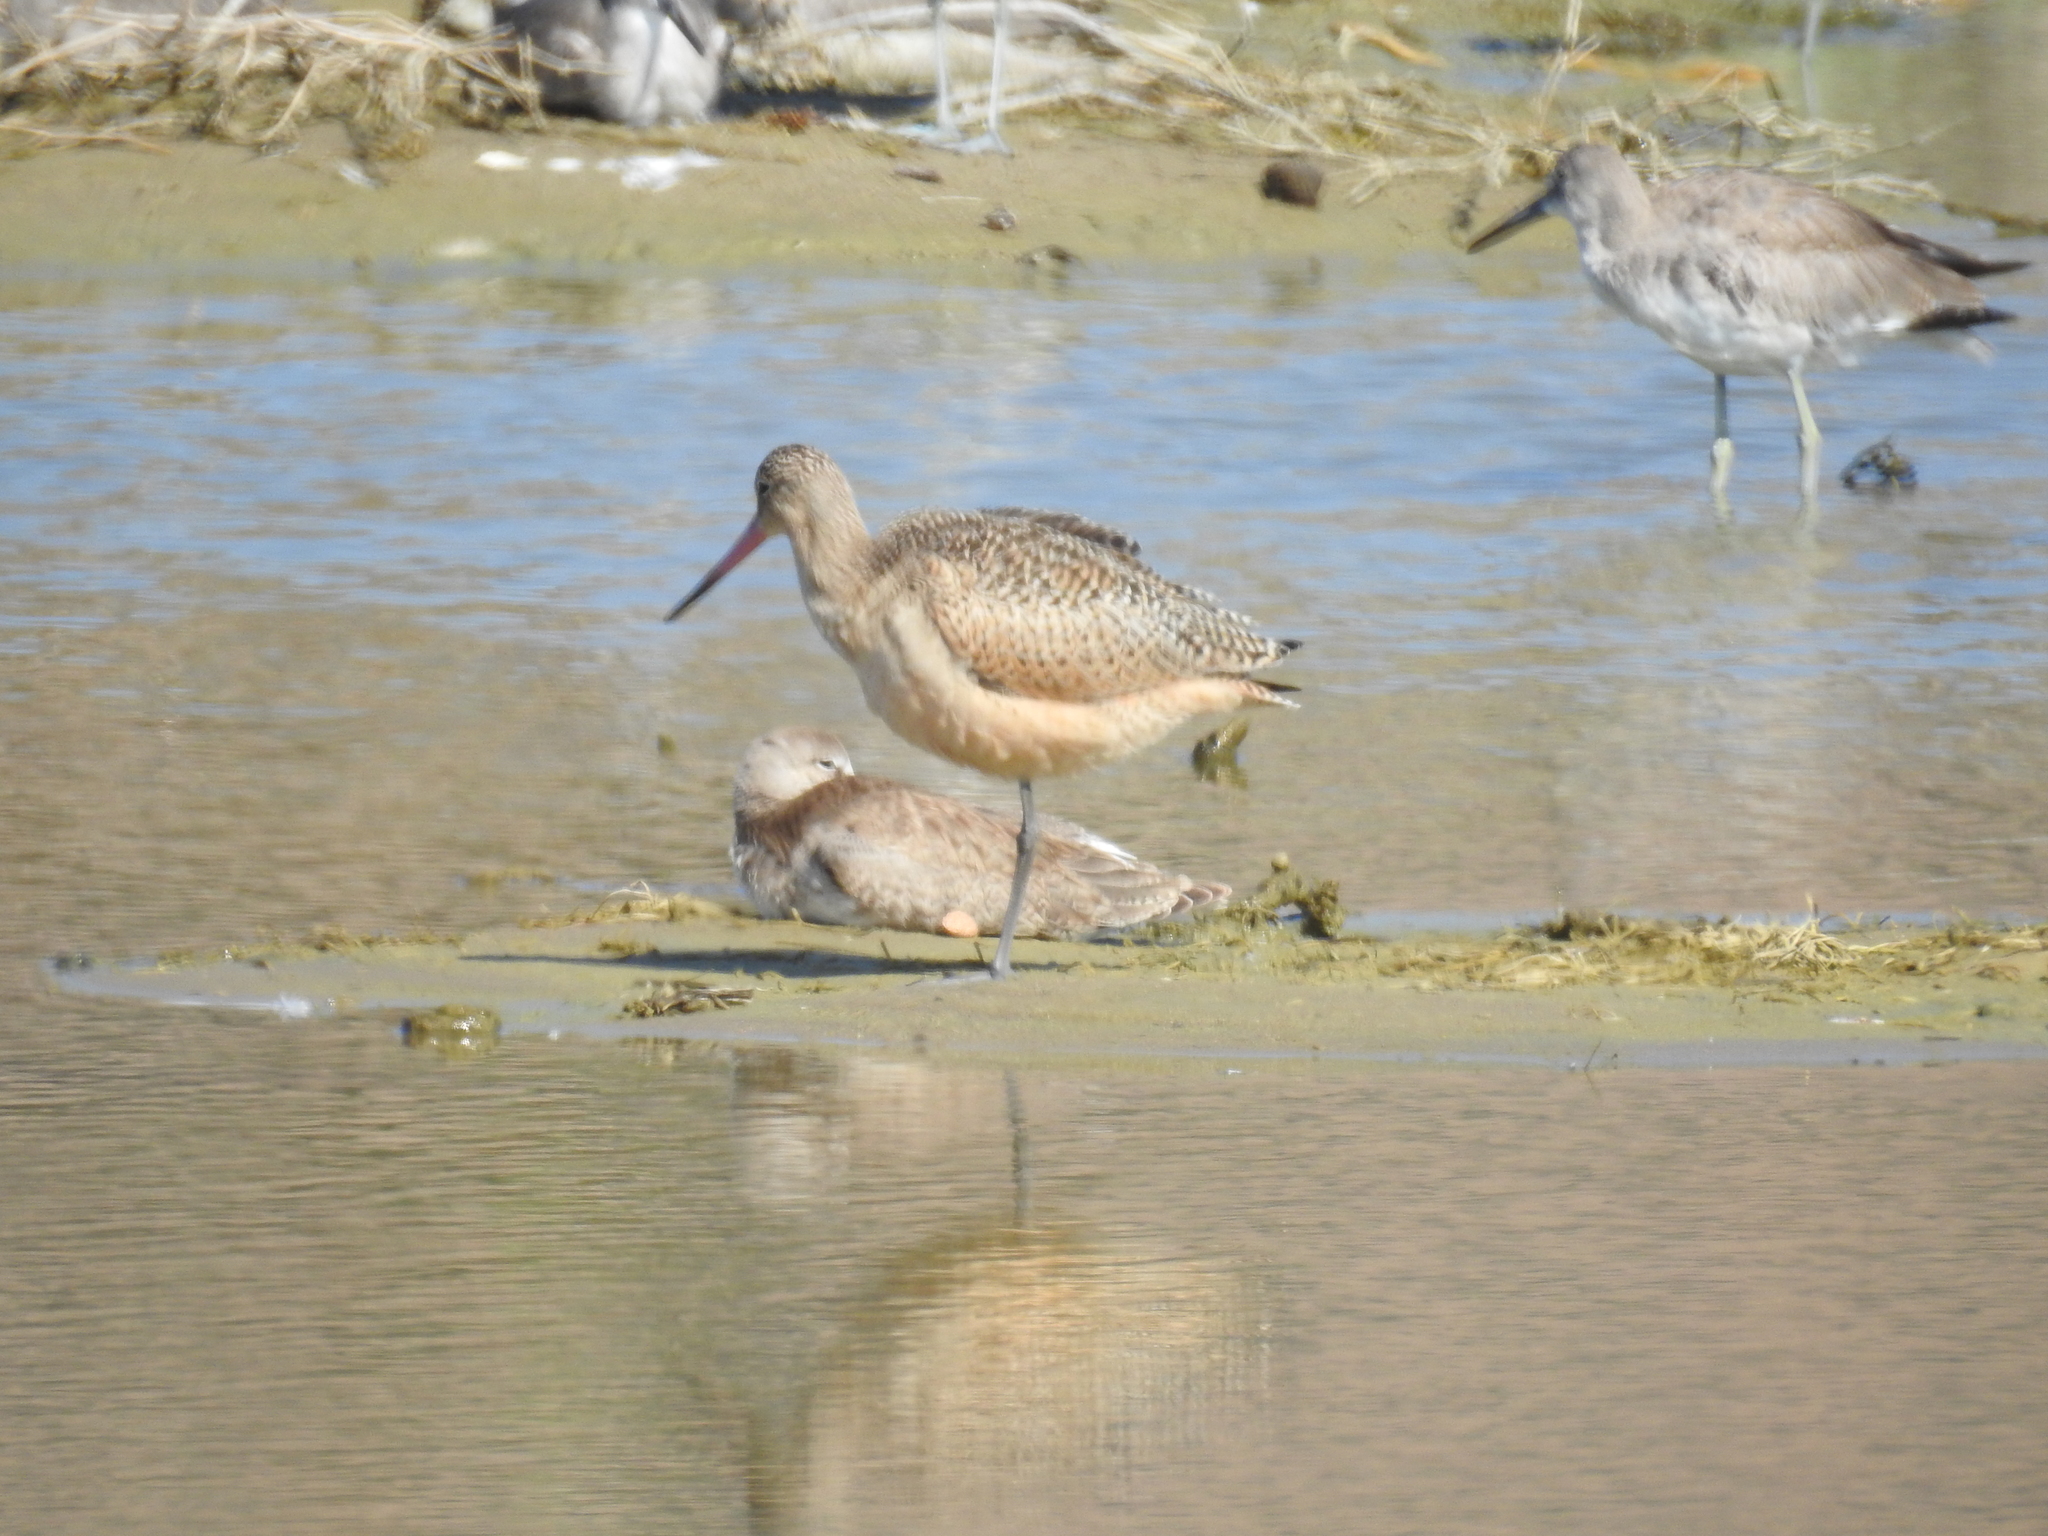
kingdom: Animalia
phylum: Chordata
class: Aves
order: Charadriiformes
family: Scolopacidae
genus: Limosa
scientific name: Limosa fedoa
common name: Marbled godwit
